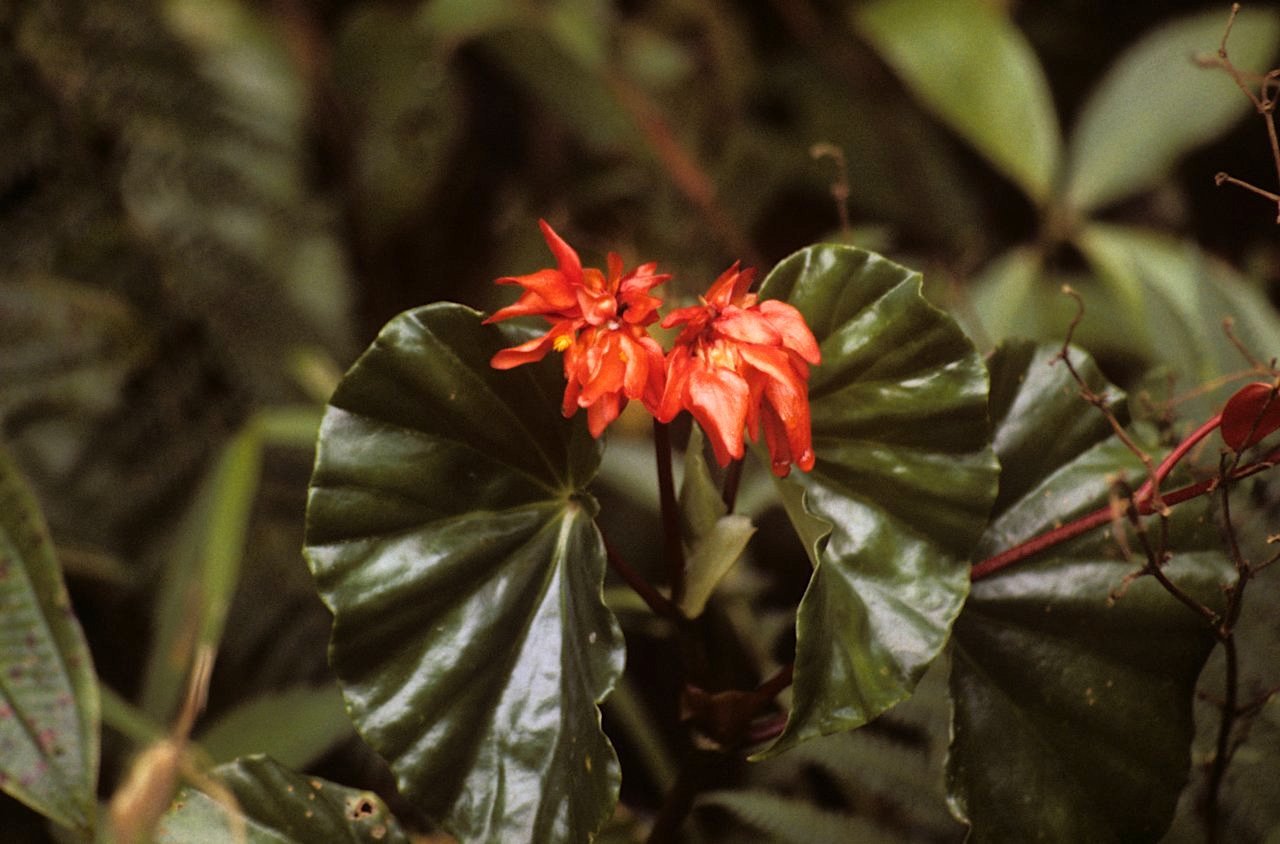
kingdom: Plantae
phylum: Tracheophyta
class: Magnoliopsida
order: Cucurbitales
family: Begoniaceae
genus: Begonia
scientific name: Begonia stenotepala
